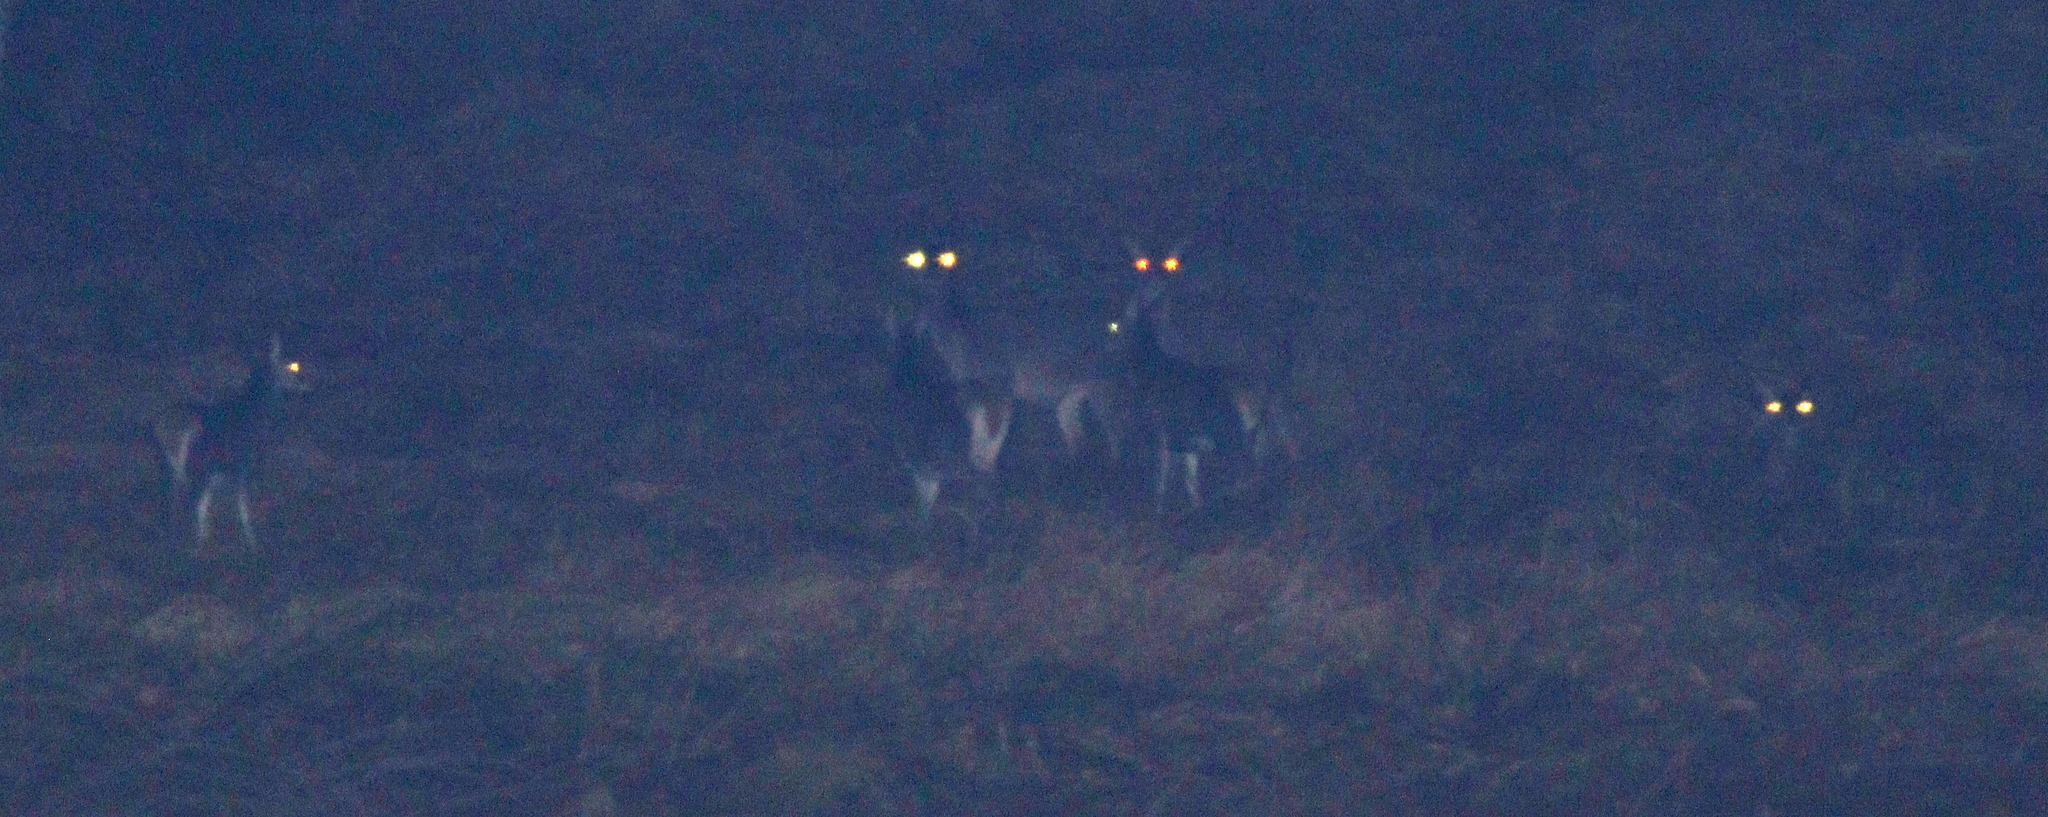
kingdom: Animalia
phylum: Chordata
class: Mammalia
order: Artiodactyla
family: Cervidae
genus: Cervus
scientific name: Cervus elaphus
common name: Red deer
